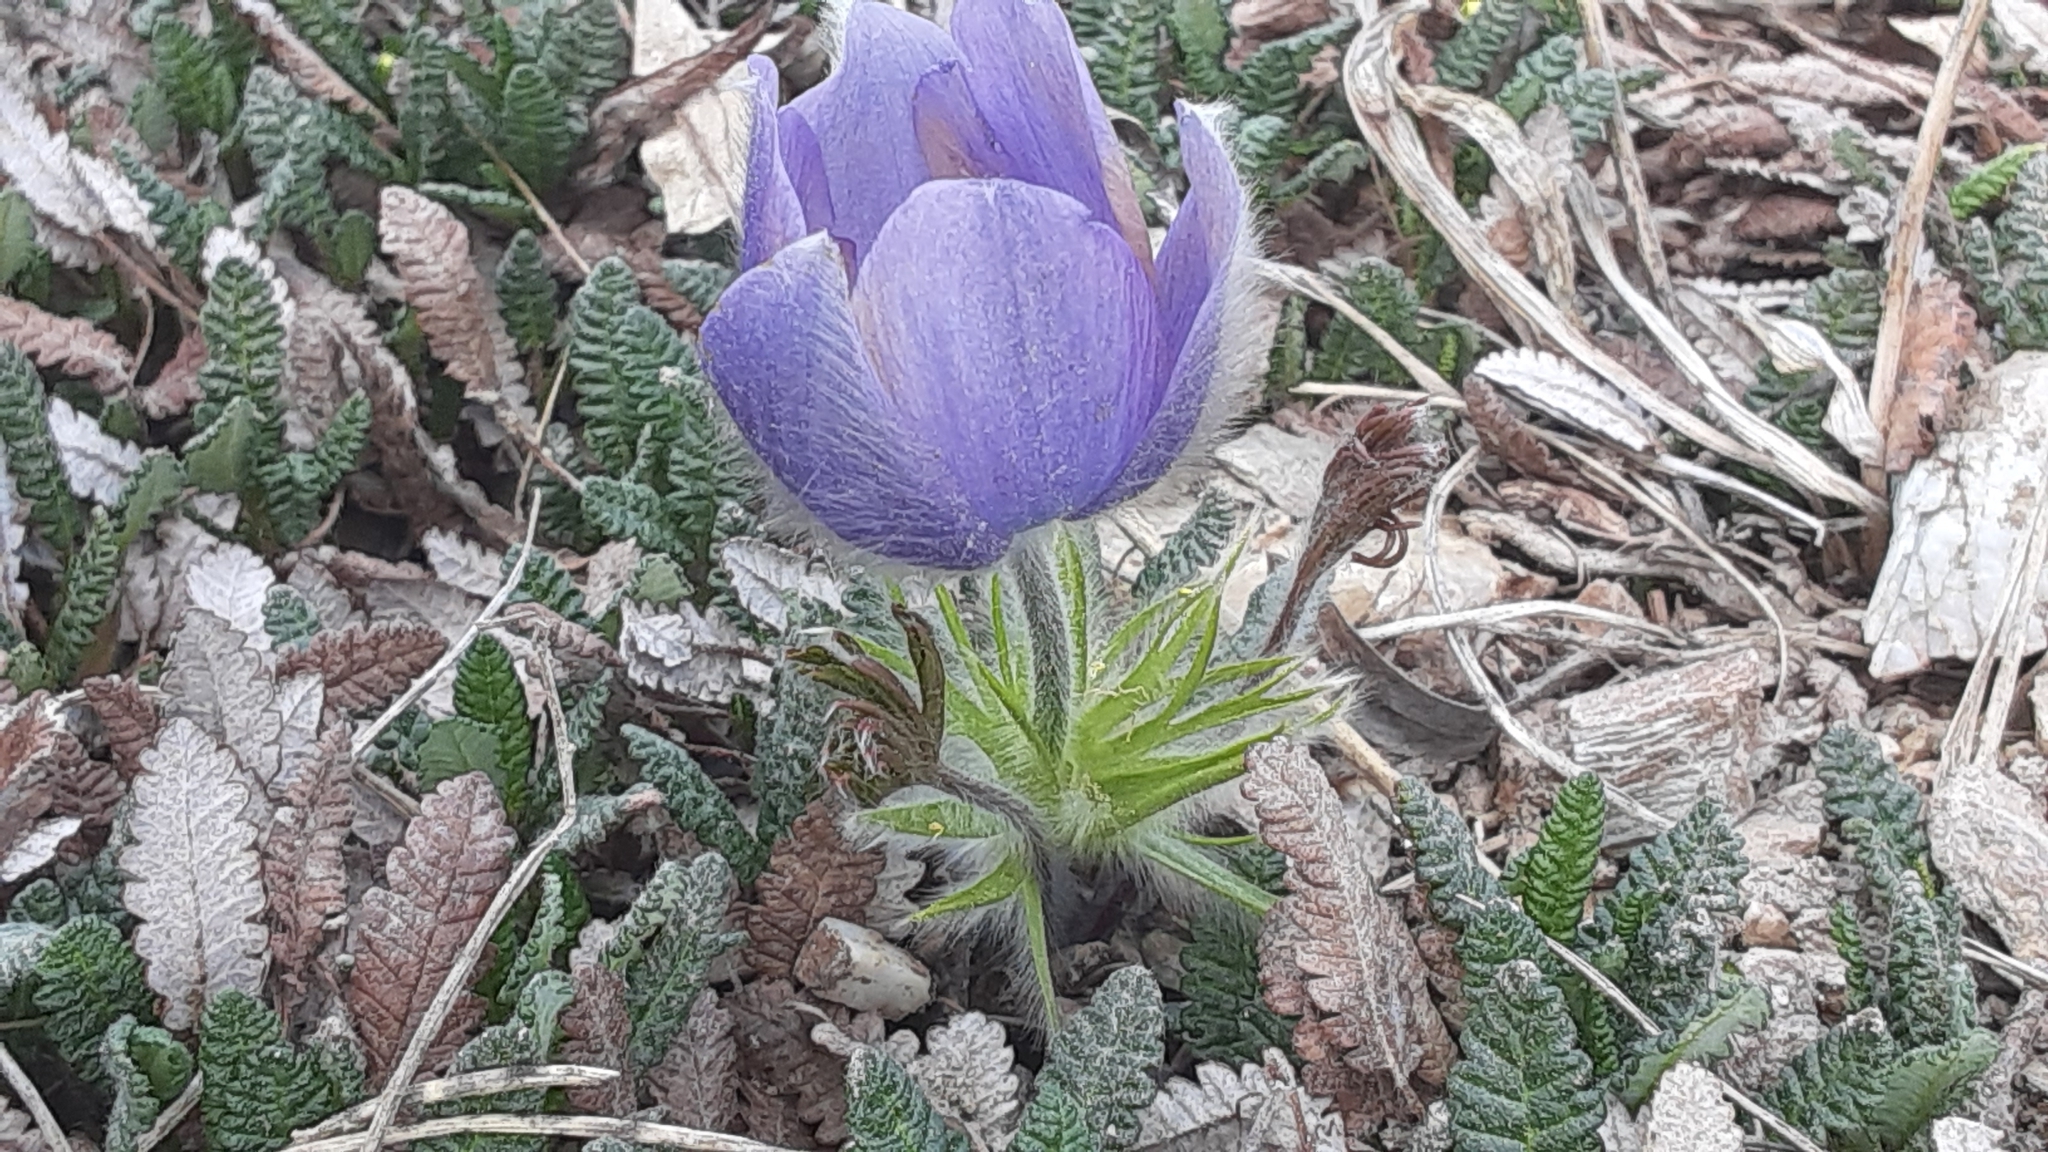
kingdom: Plantae
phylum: Tracheophyta
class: Magnoliopsida
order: Ranunculales
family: Ranunculaceae
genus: Pulsatilla
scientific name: Pulsatilla nuttalliana
